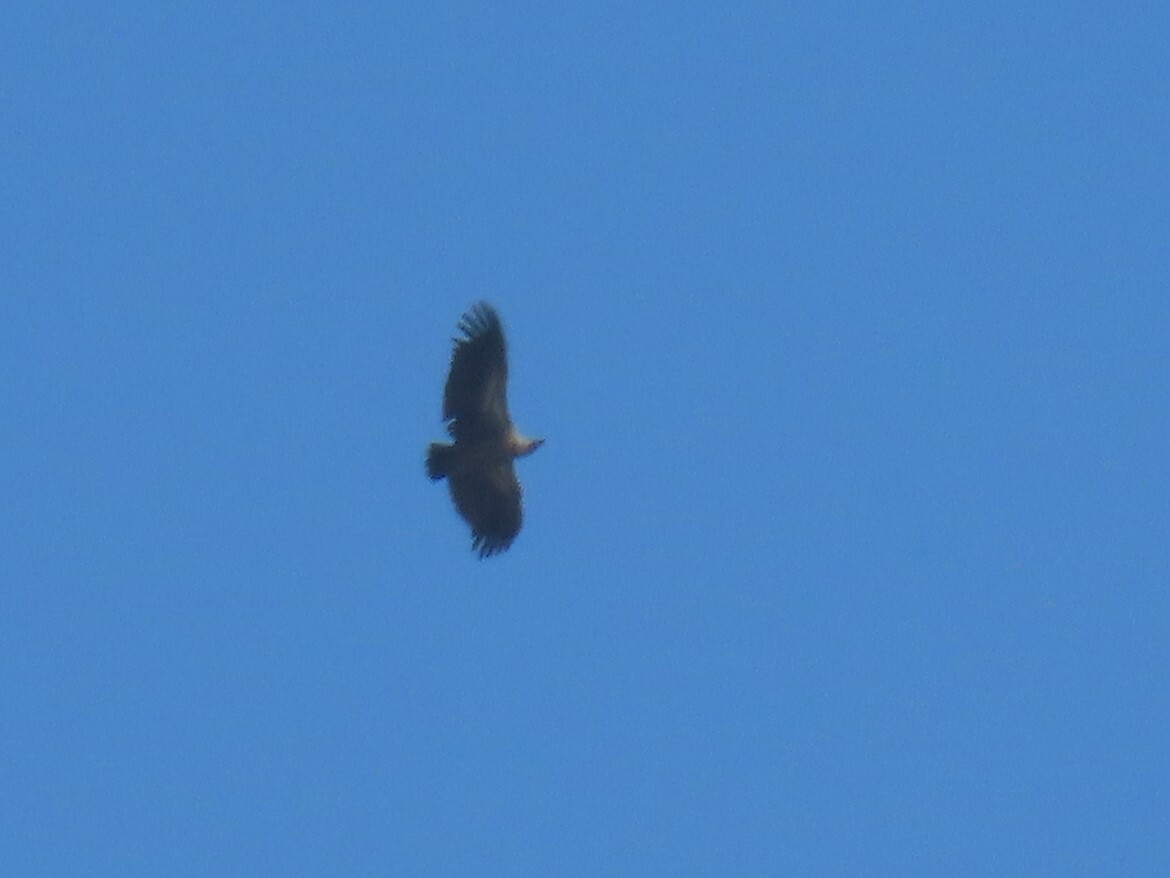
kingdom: Animalia
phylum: Chordata
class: Aves
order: Accipitriformes
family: Accipitridae
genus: Gyps
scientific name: Gyps africanus
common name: White-backed vulture
